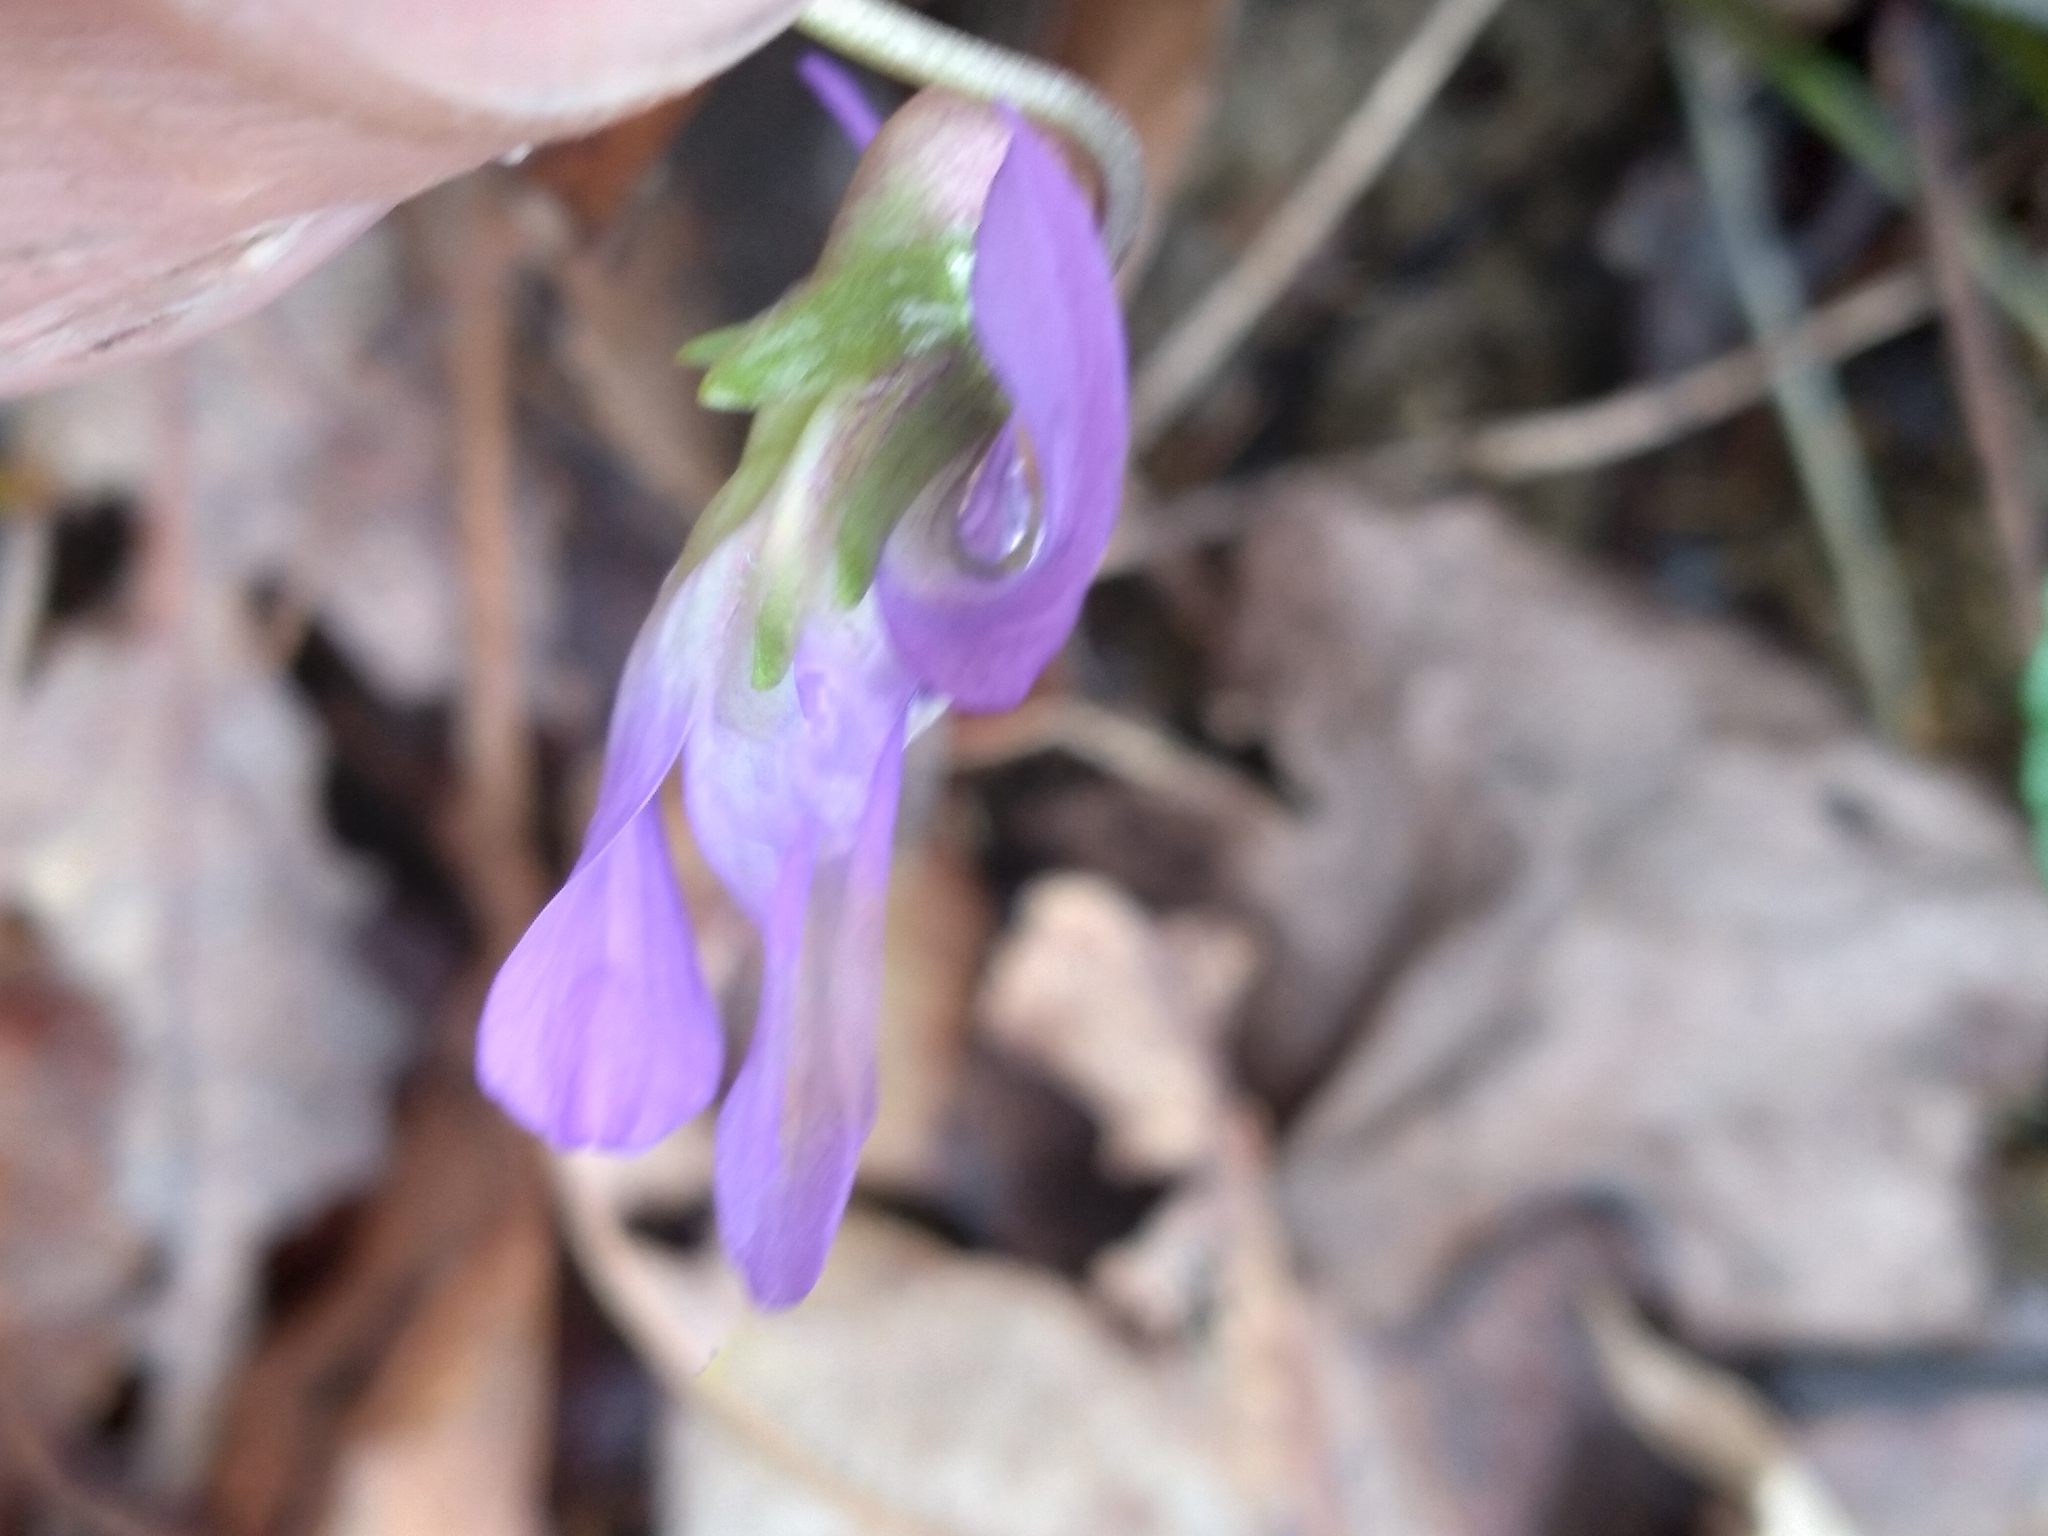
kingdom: Plantae
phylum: Tracheophyta
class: Magnoliopsida
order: Malpighiales
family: Violaceae
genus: Viola
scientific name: Viola sororia
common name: Dooryard violet
